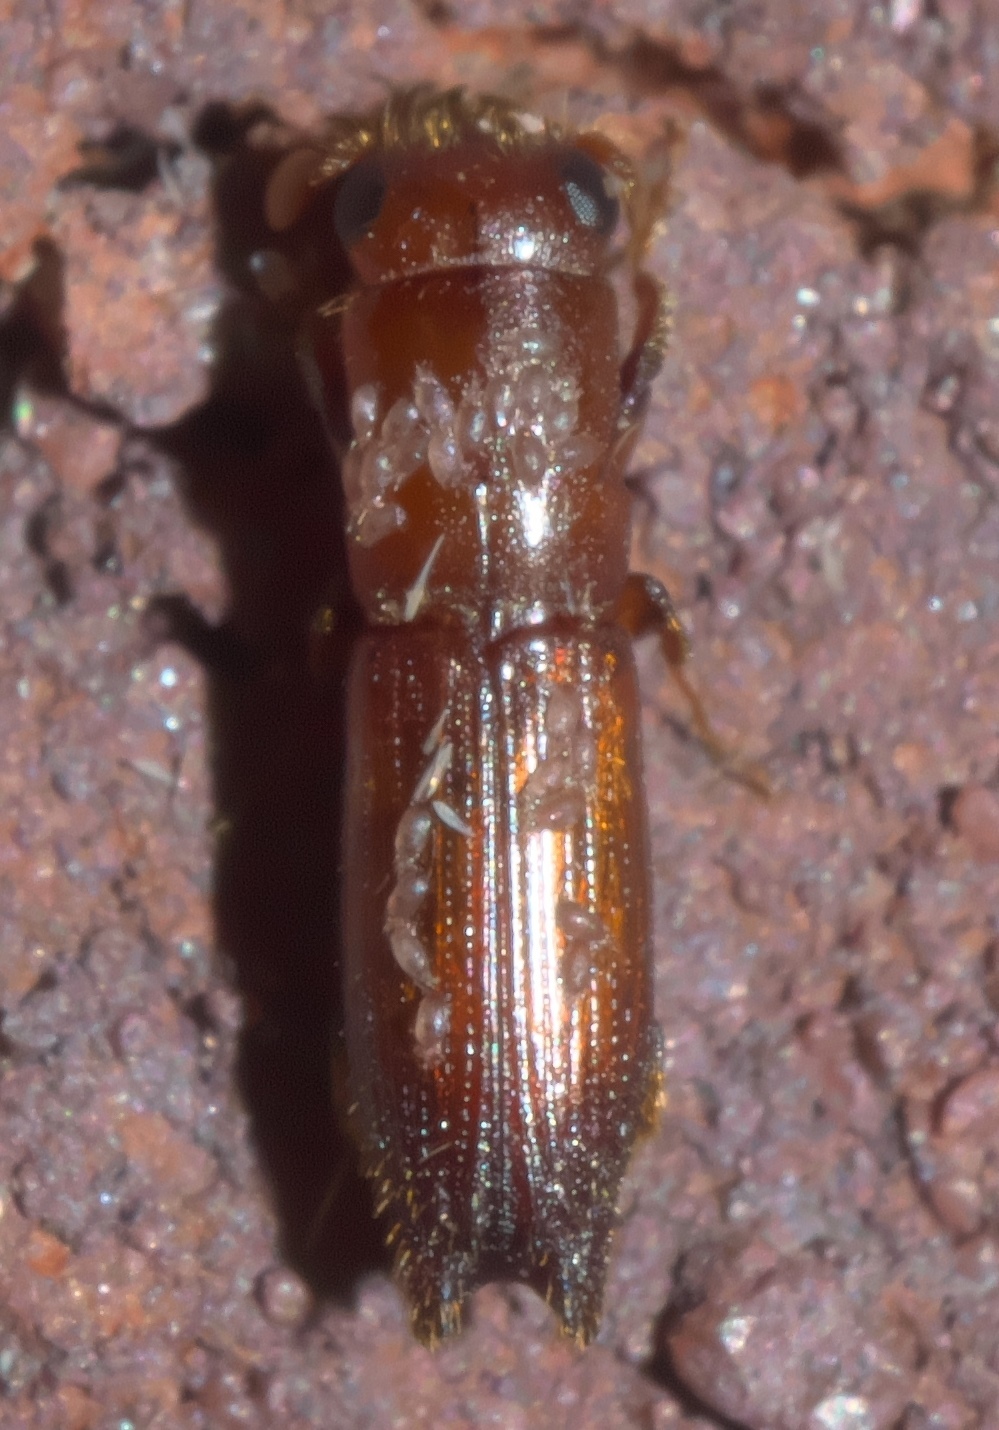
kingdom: Animalia
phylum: Arthropoda
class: Insecta
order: Coleoptera
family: Curculionidae
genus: Euplatypus
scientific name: Euplatypus compositus
